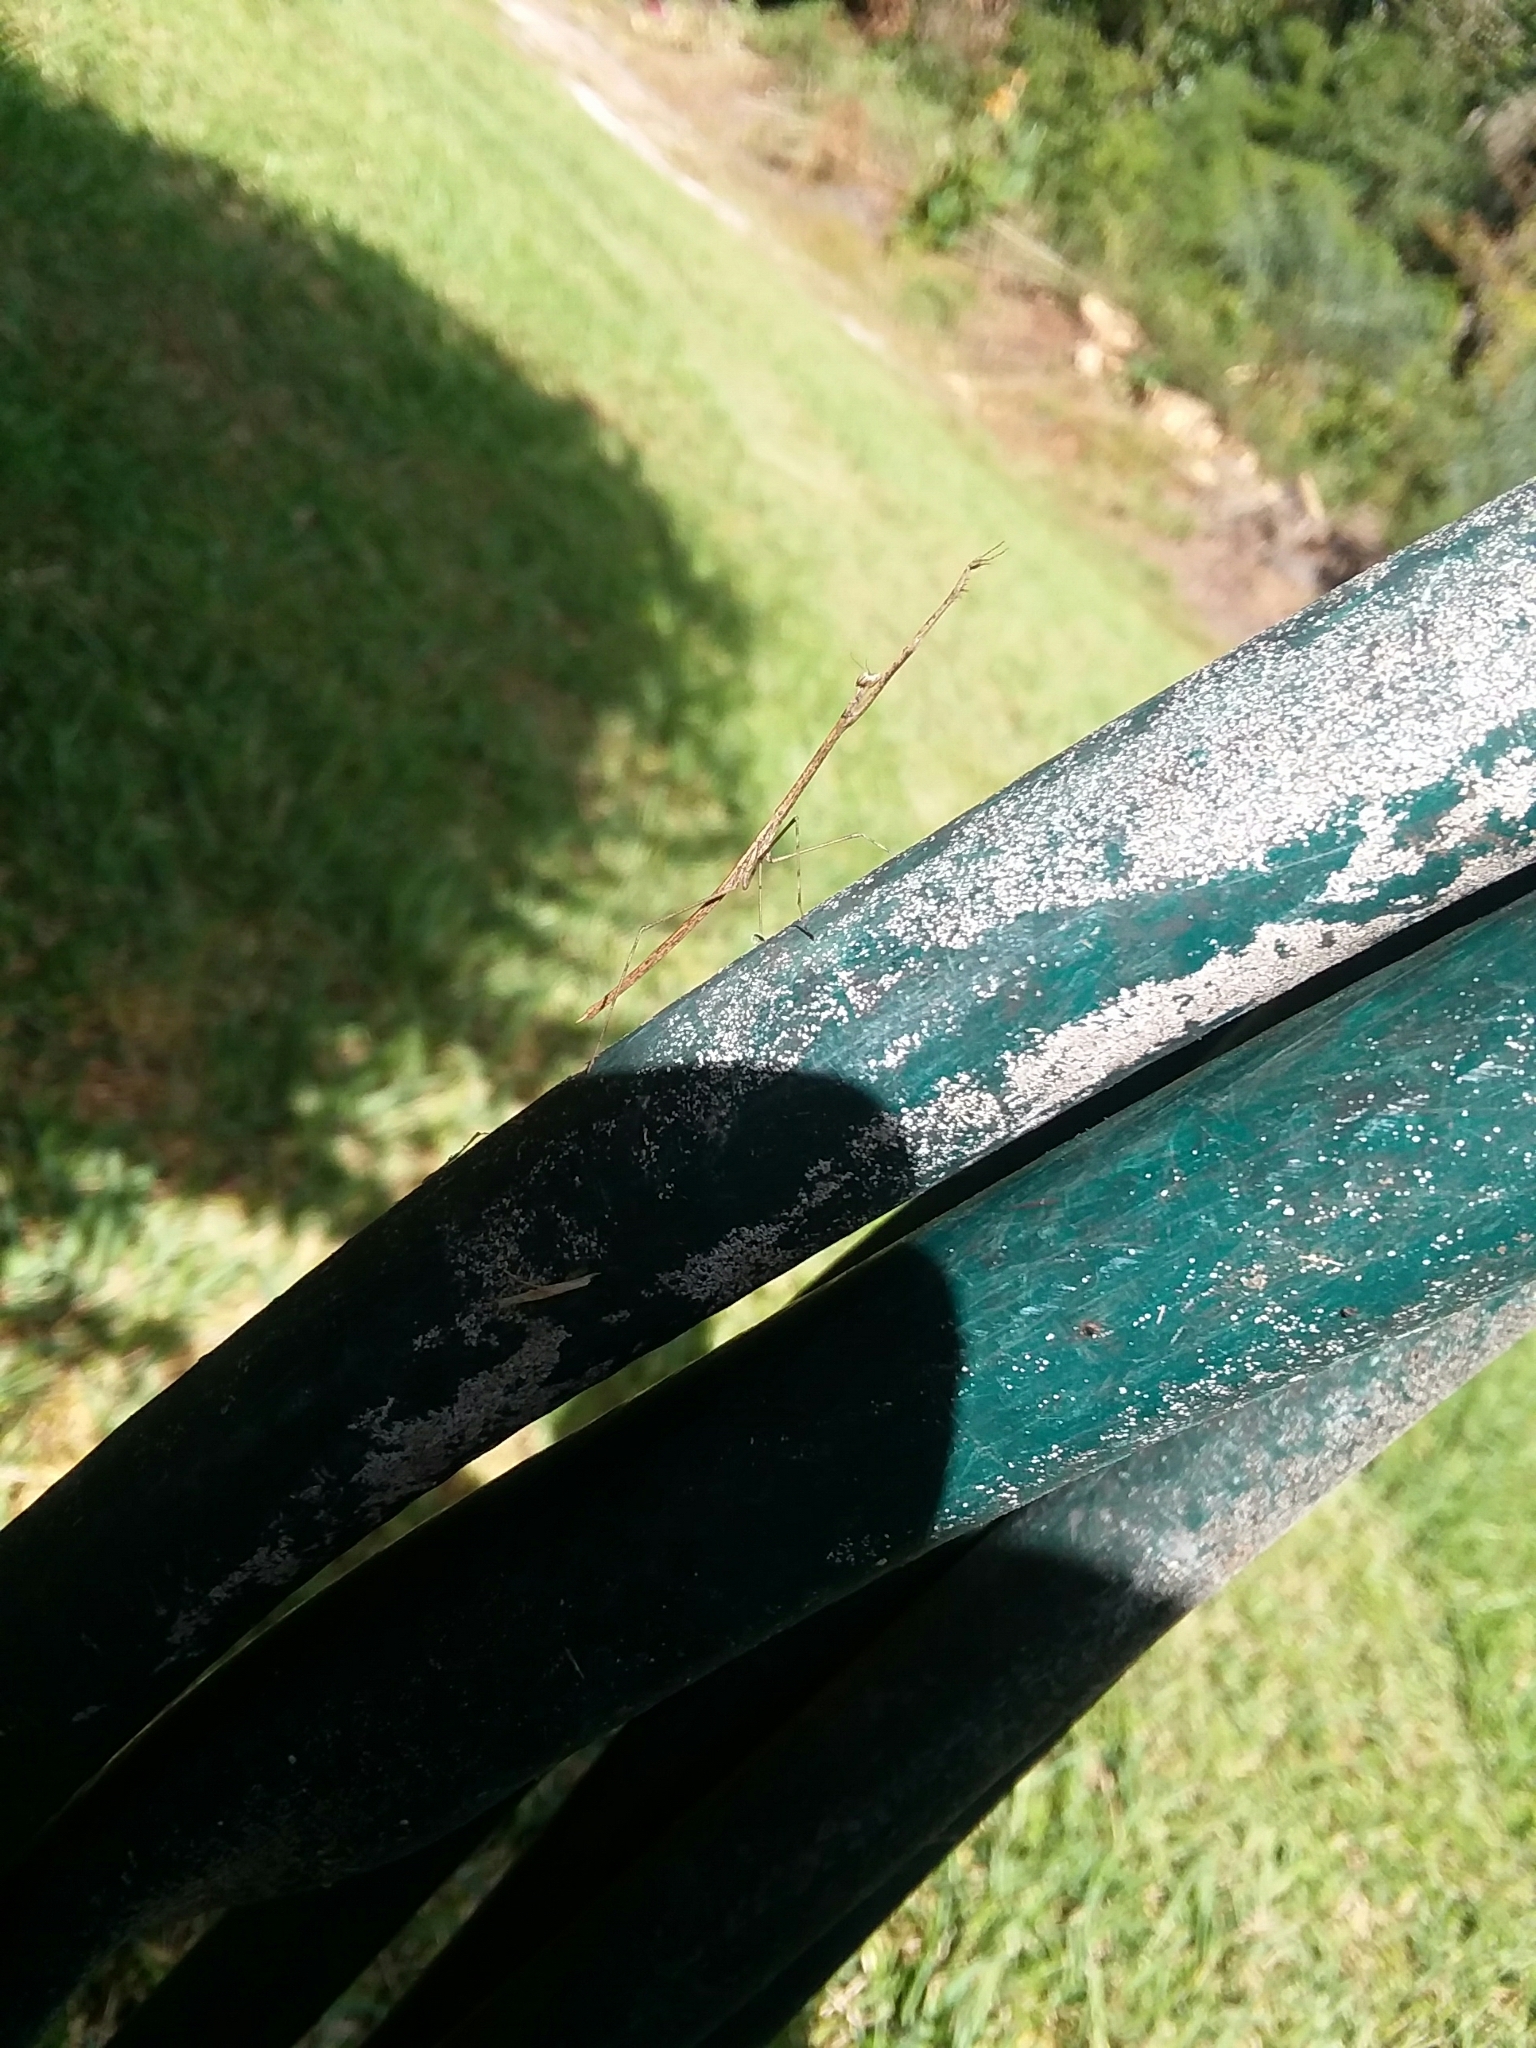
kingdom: Animalia
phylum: Arthropoda
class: Insecta
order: Mantodea
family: Thespidae
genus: Thesprotia
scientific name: Thesprotia graminis
